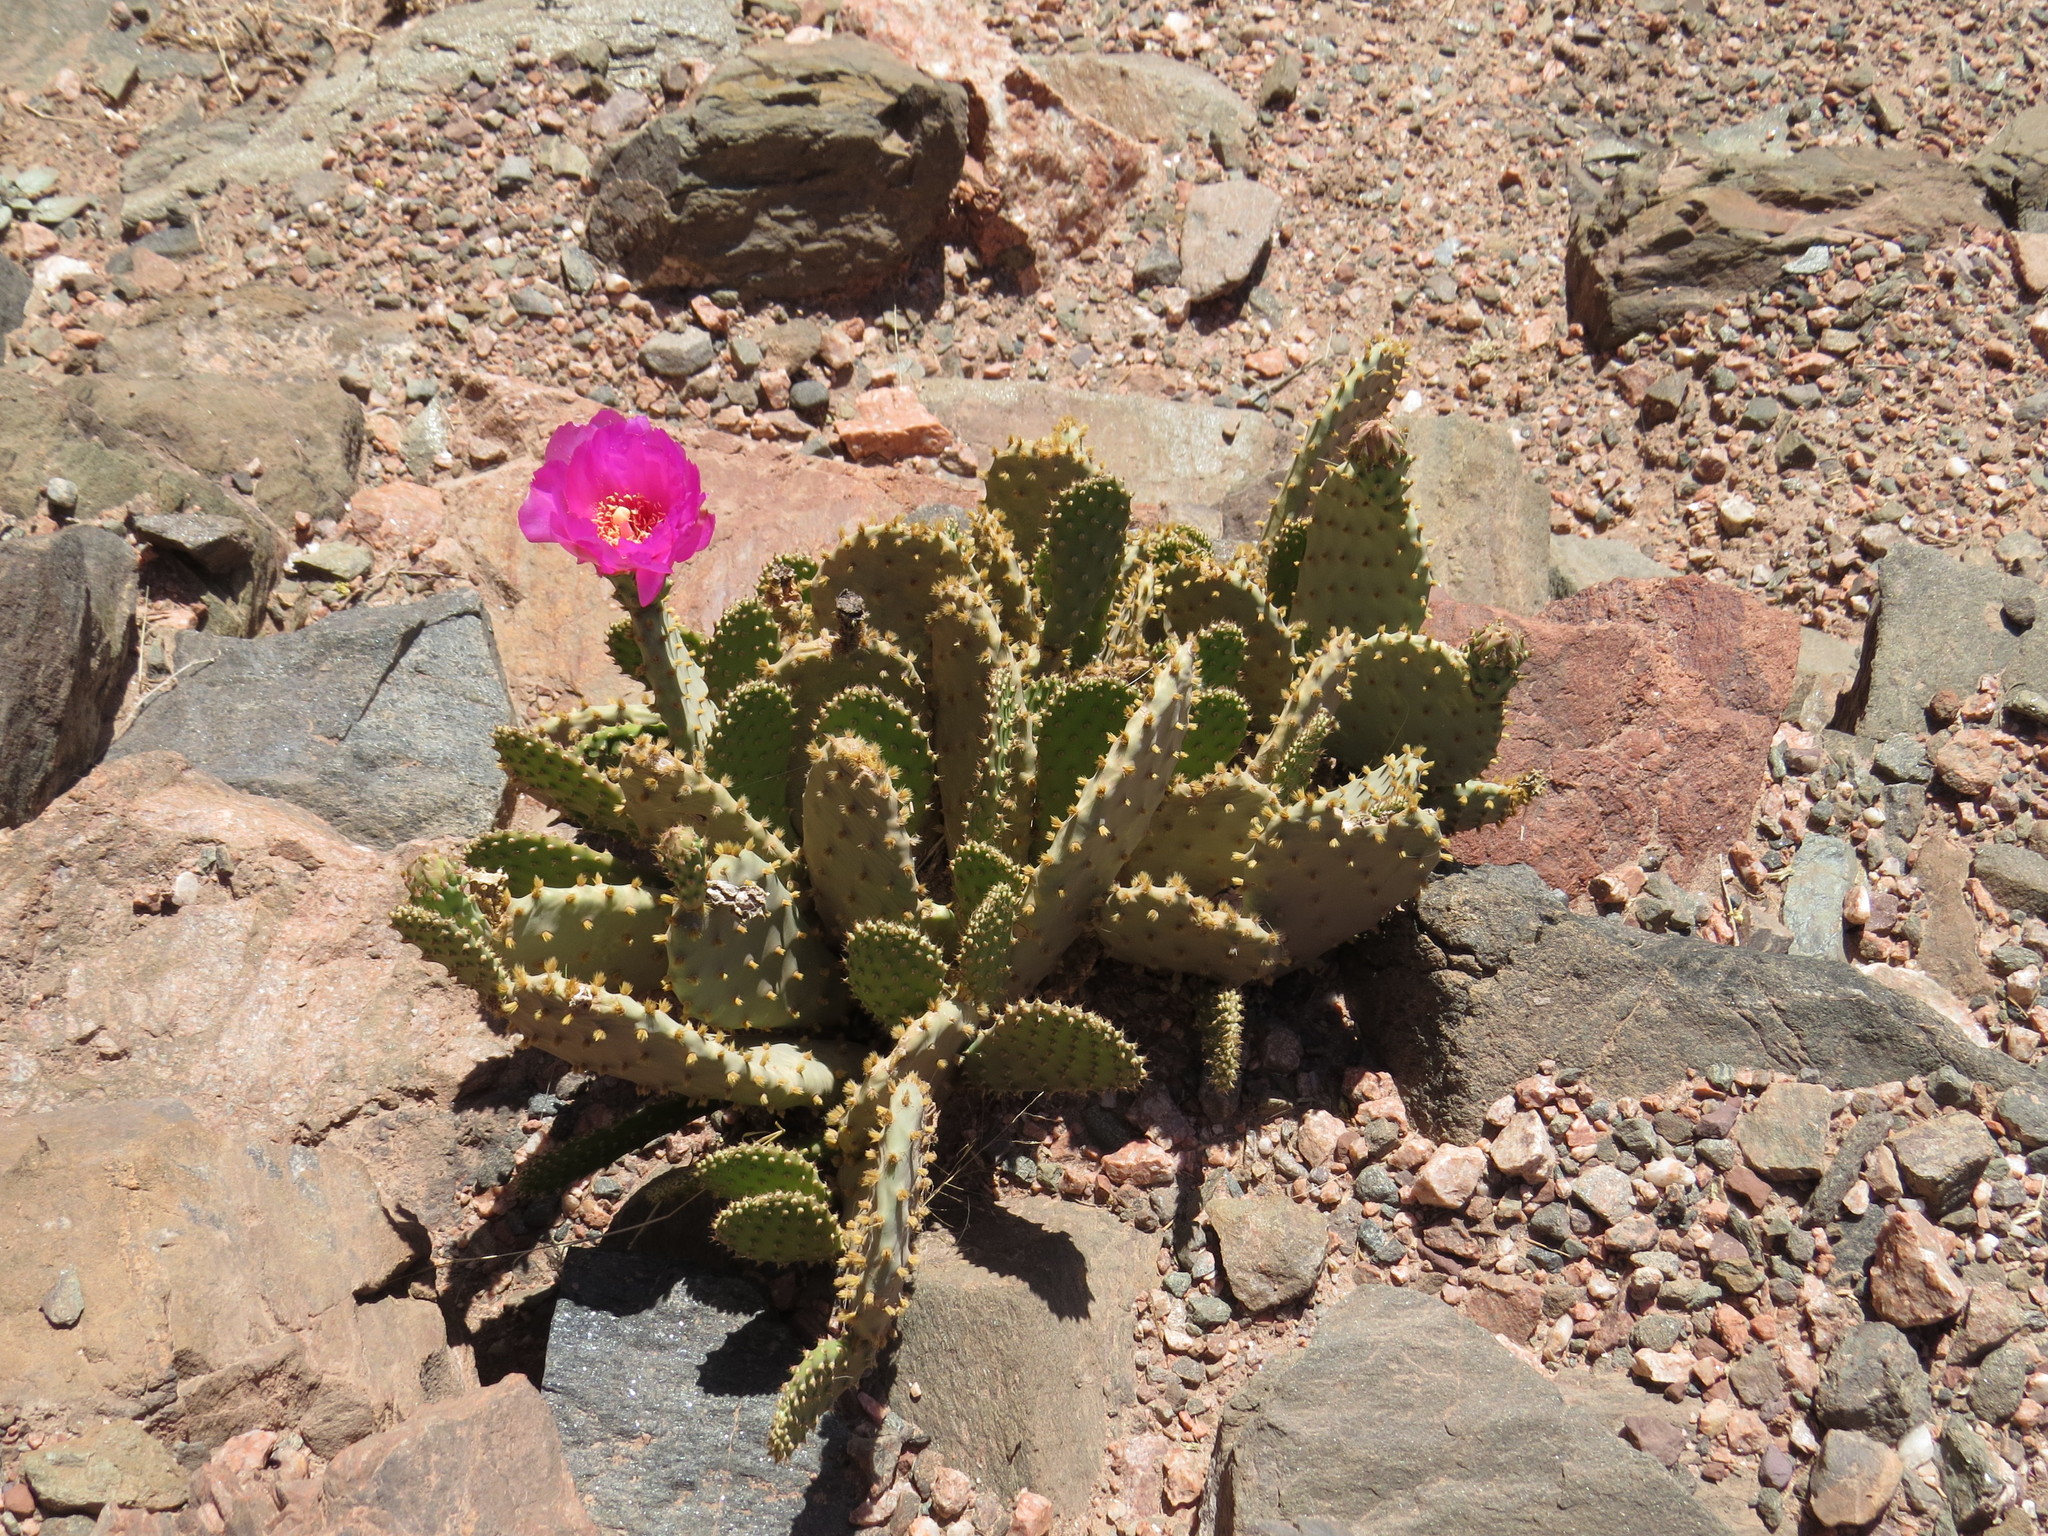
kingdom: Plantae
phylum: Tracheophyta
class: Magnoliopsida
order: Caryophyllales
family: Cactaceae
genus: Opuntia
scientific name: Opuntia basilaris
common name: Beavertail prickly-pear
